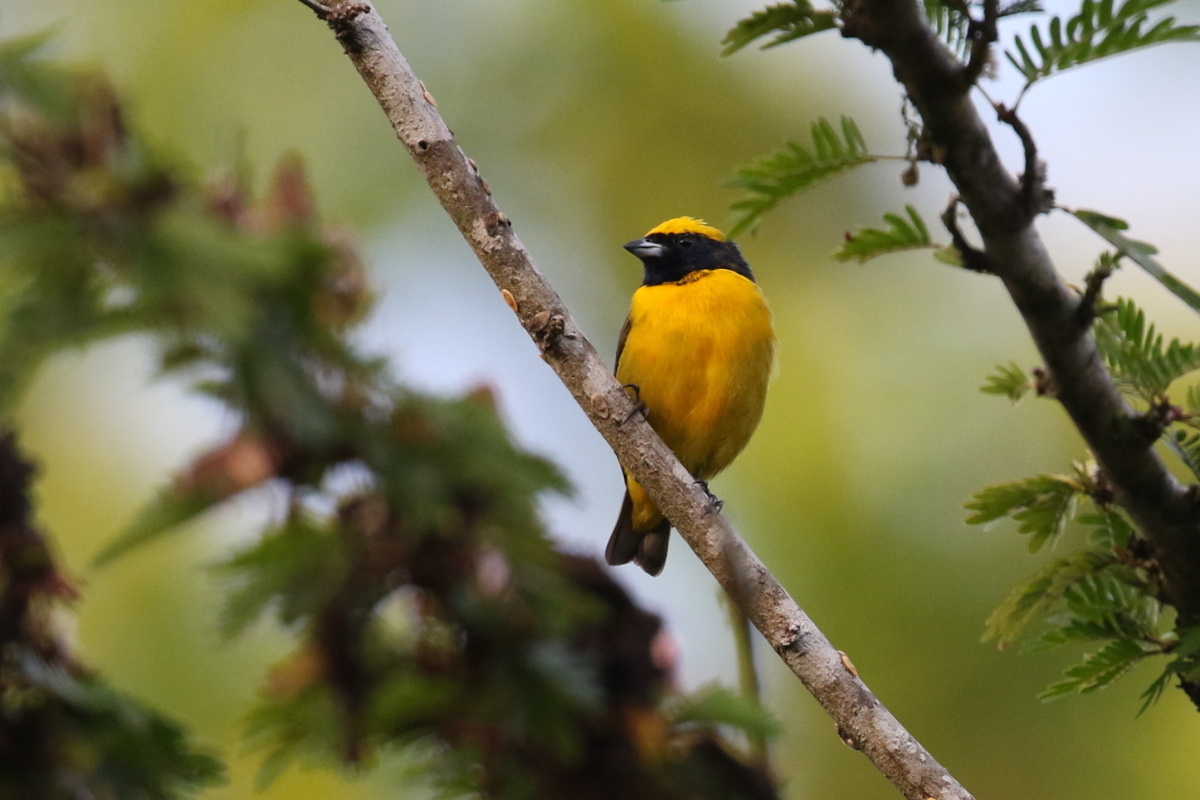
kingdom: Animalia
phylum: Chordata
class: Aves
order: Passeriformes
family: Fringillidae
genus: Euphonia
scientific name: Euphonia luteicapilla
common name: Yellow-crowned euphonia
